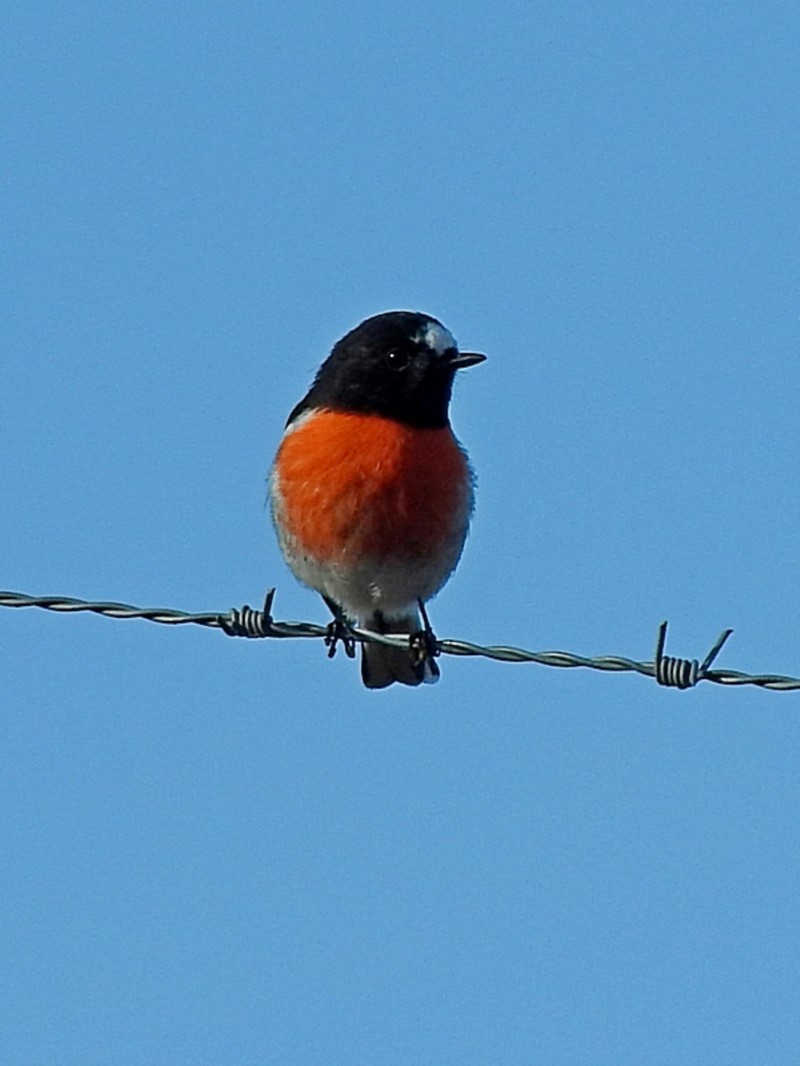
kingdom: Animalia
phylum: Chordata
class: Aves
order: Passeriformes
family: Petroicidae
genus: Petroica
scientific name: Petroica boodang
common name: Scarlet robin
